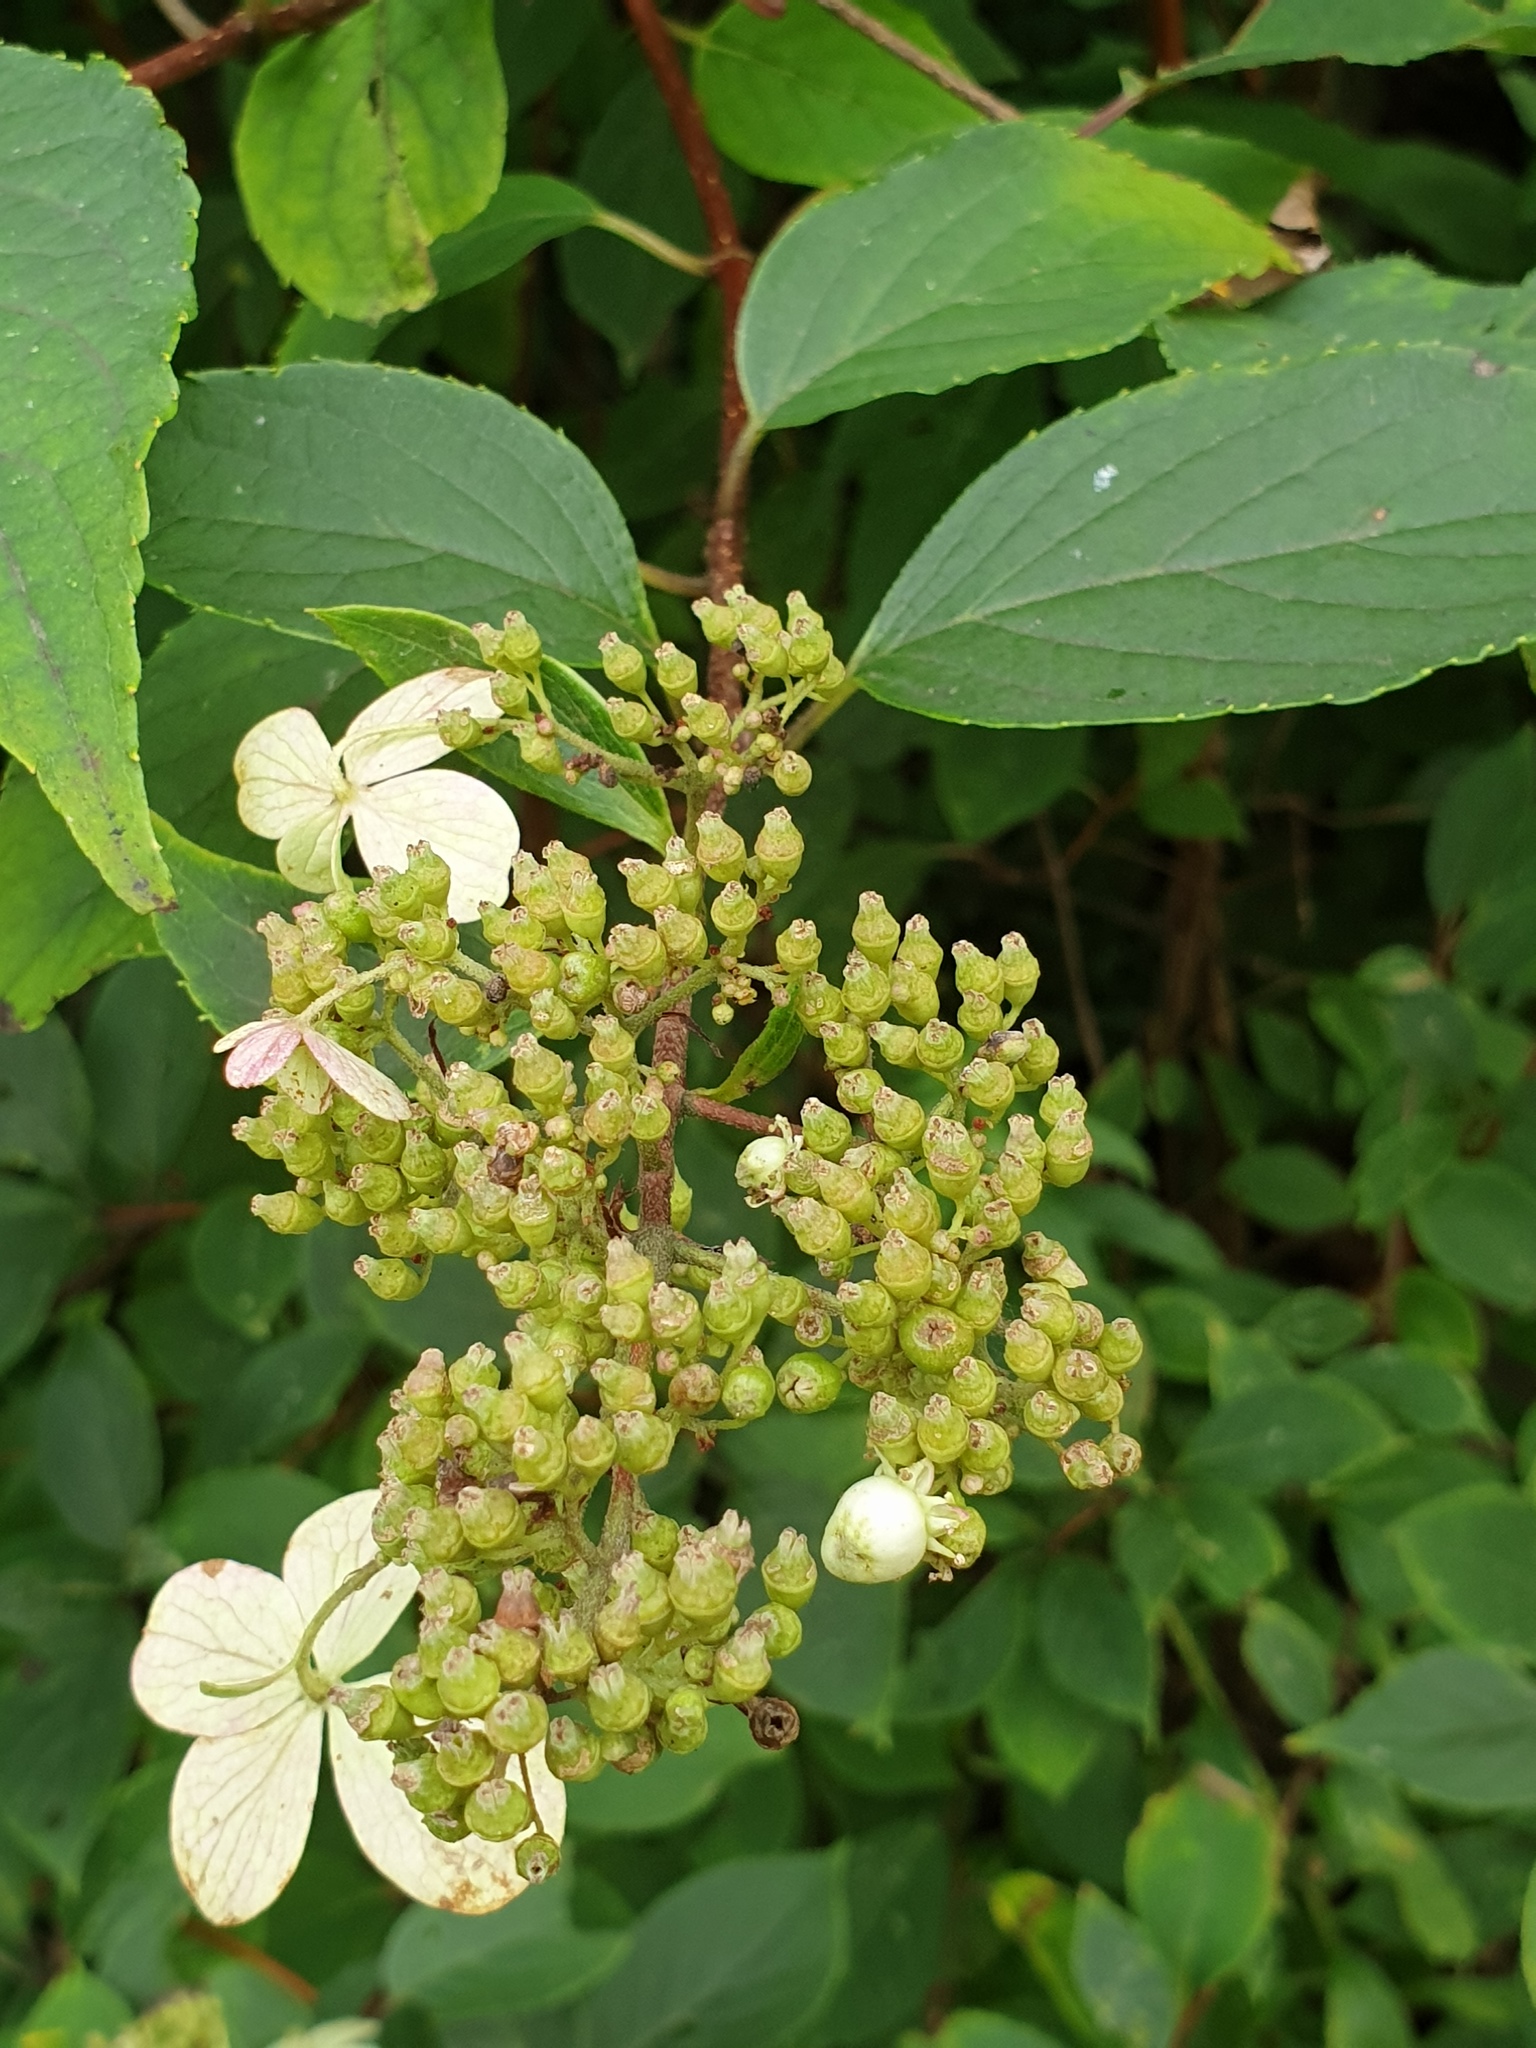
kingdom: Plantae
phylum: Tracheophyta
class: Magnoliopsida
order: Cornales
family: Hydrangeaceae
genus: Hydrangea
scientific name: Hydrangea paniculata
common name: Panicled hydrangea
